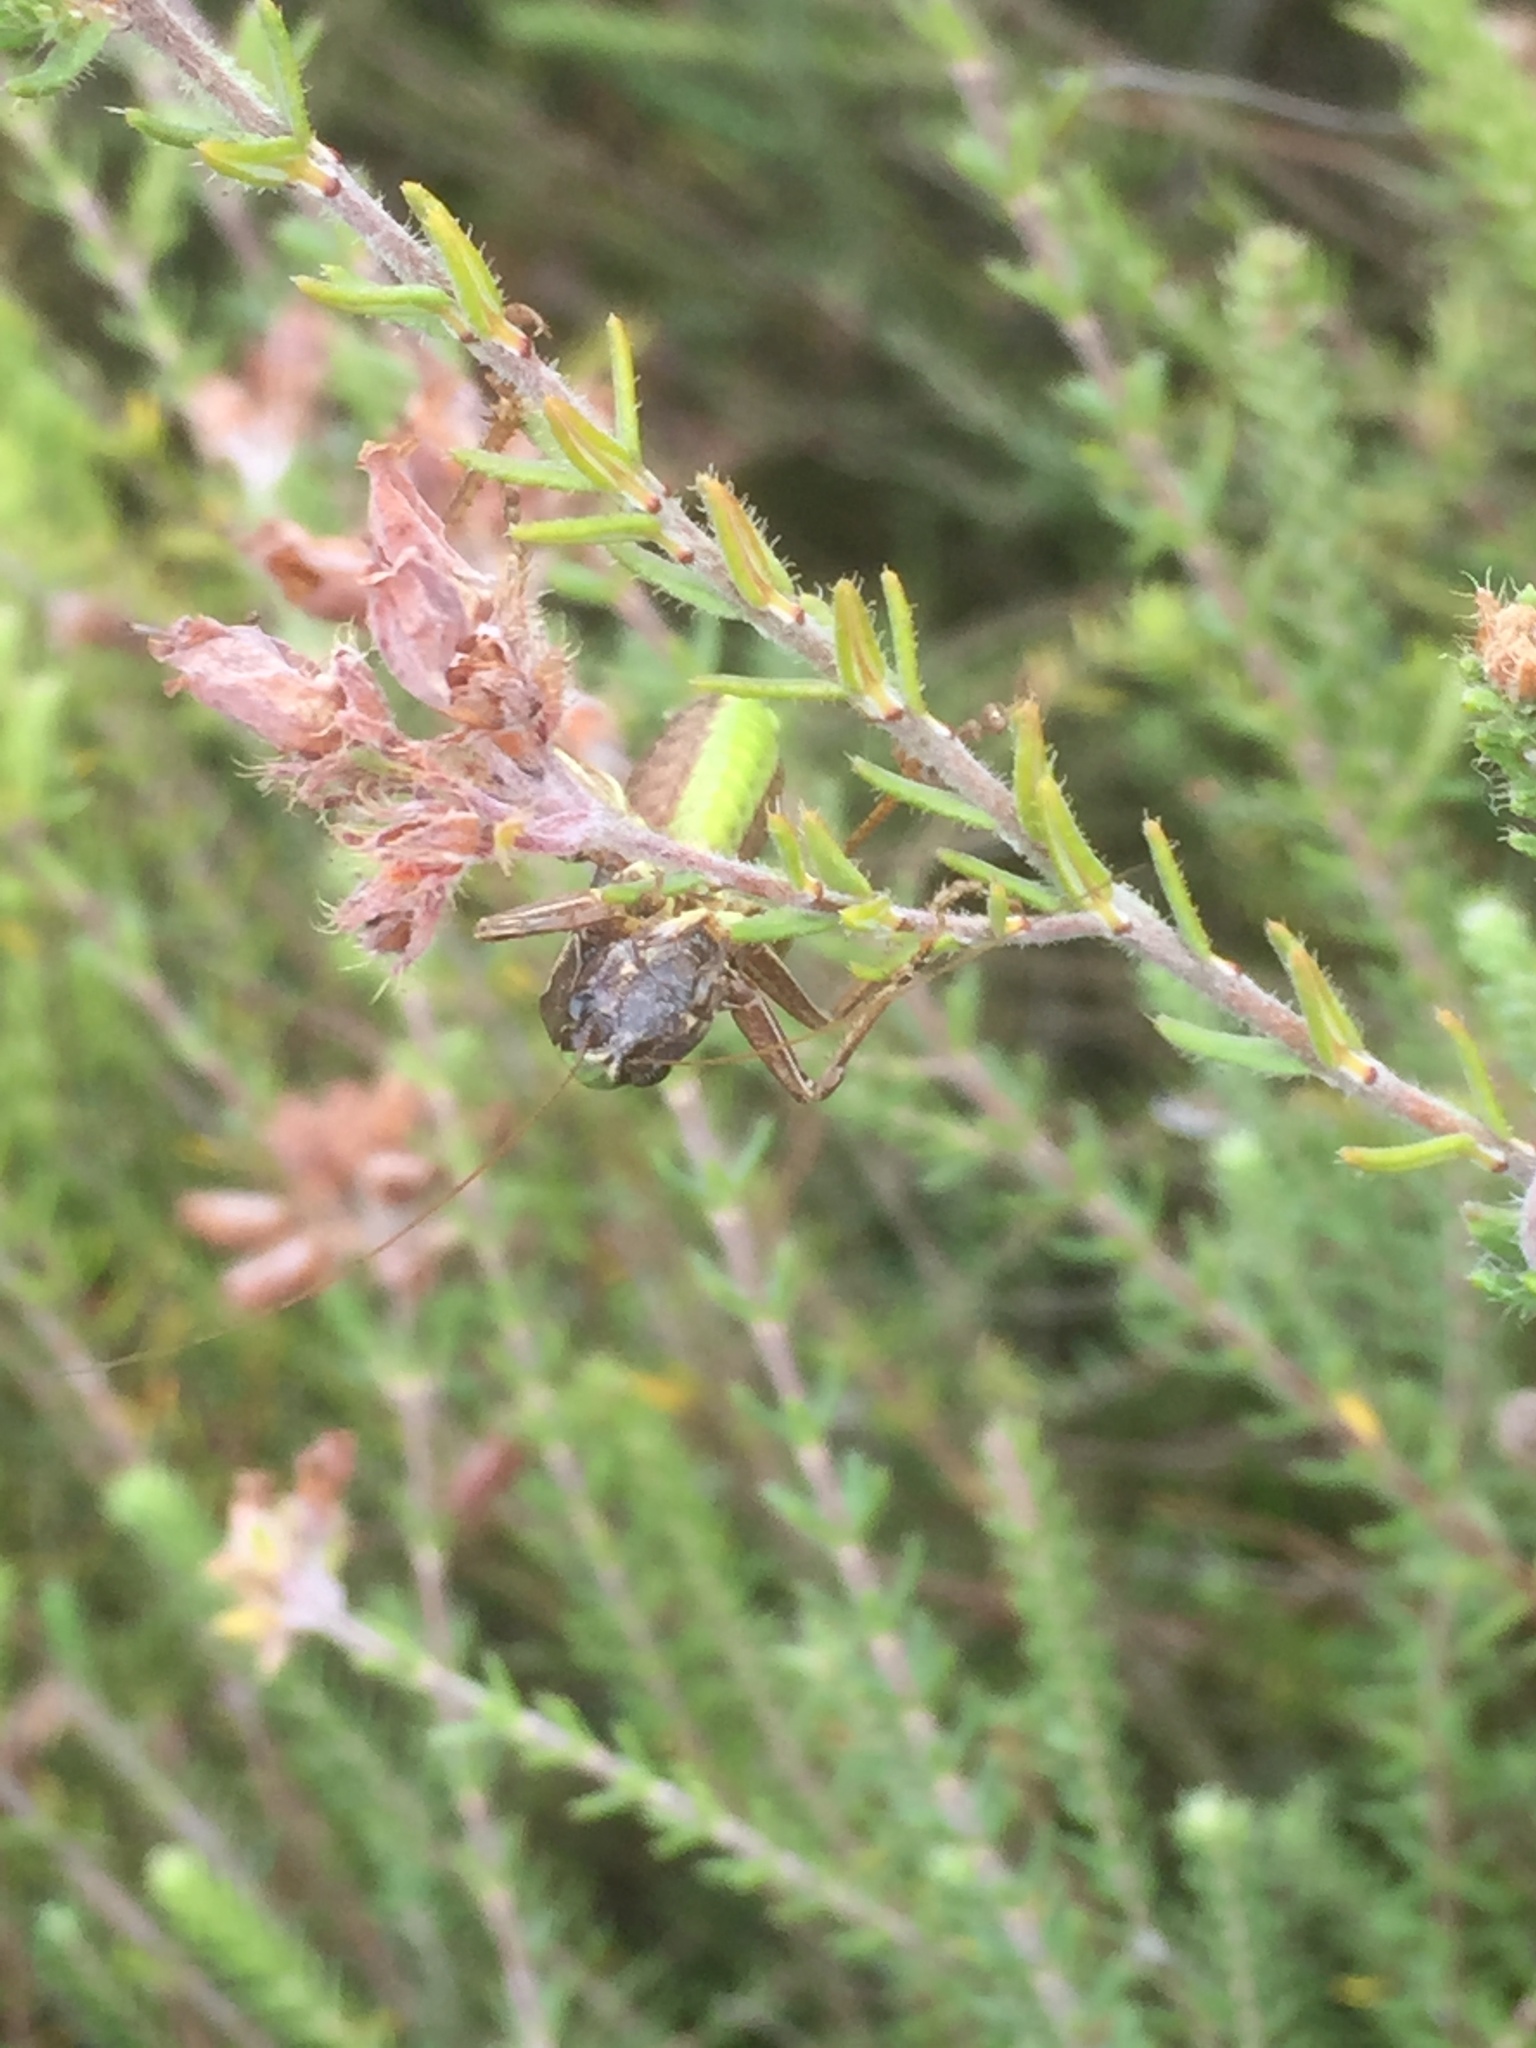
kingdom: Plantae
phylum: Tracheophyta
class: Magnoliopsida
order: Ericales
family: Ericaceae
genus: Erica
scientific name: Erica tetralix
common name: Cross-leaved heath
